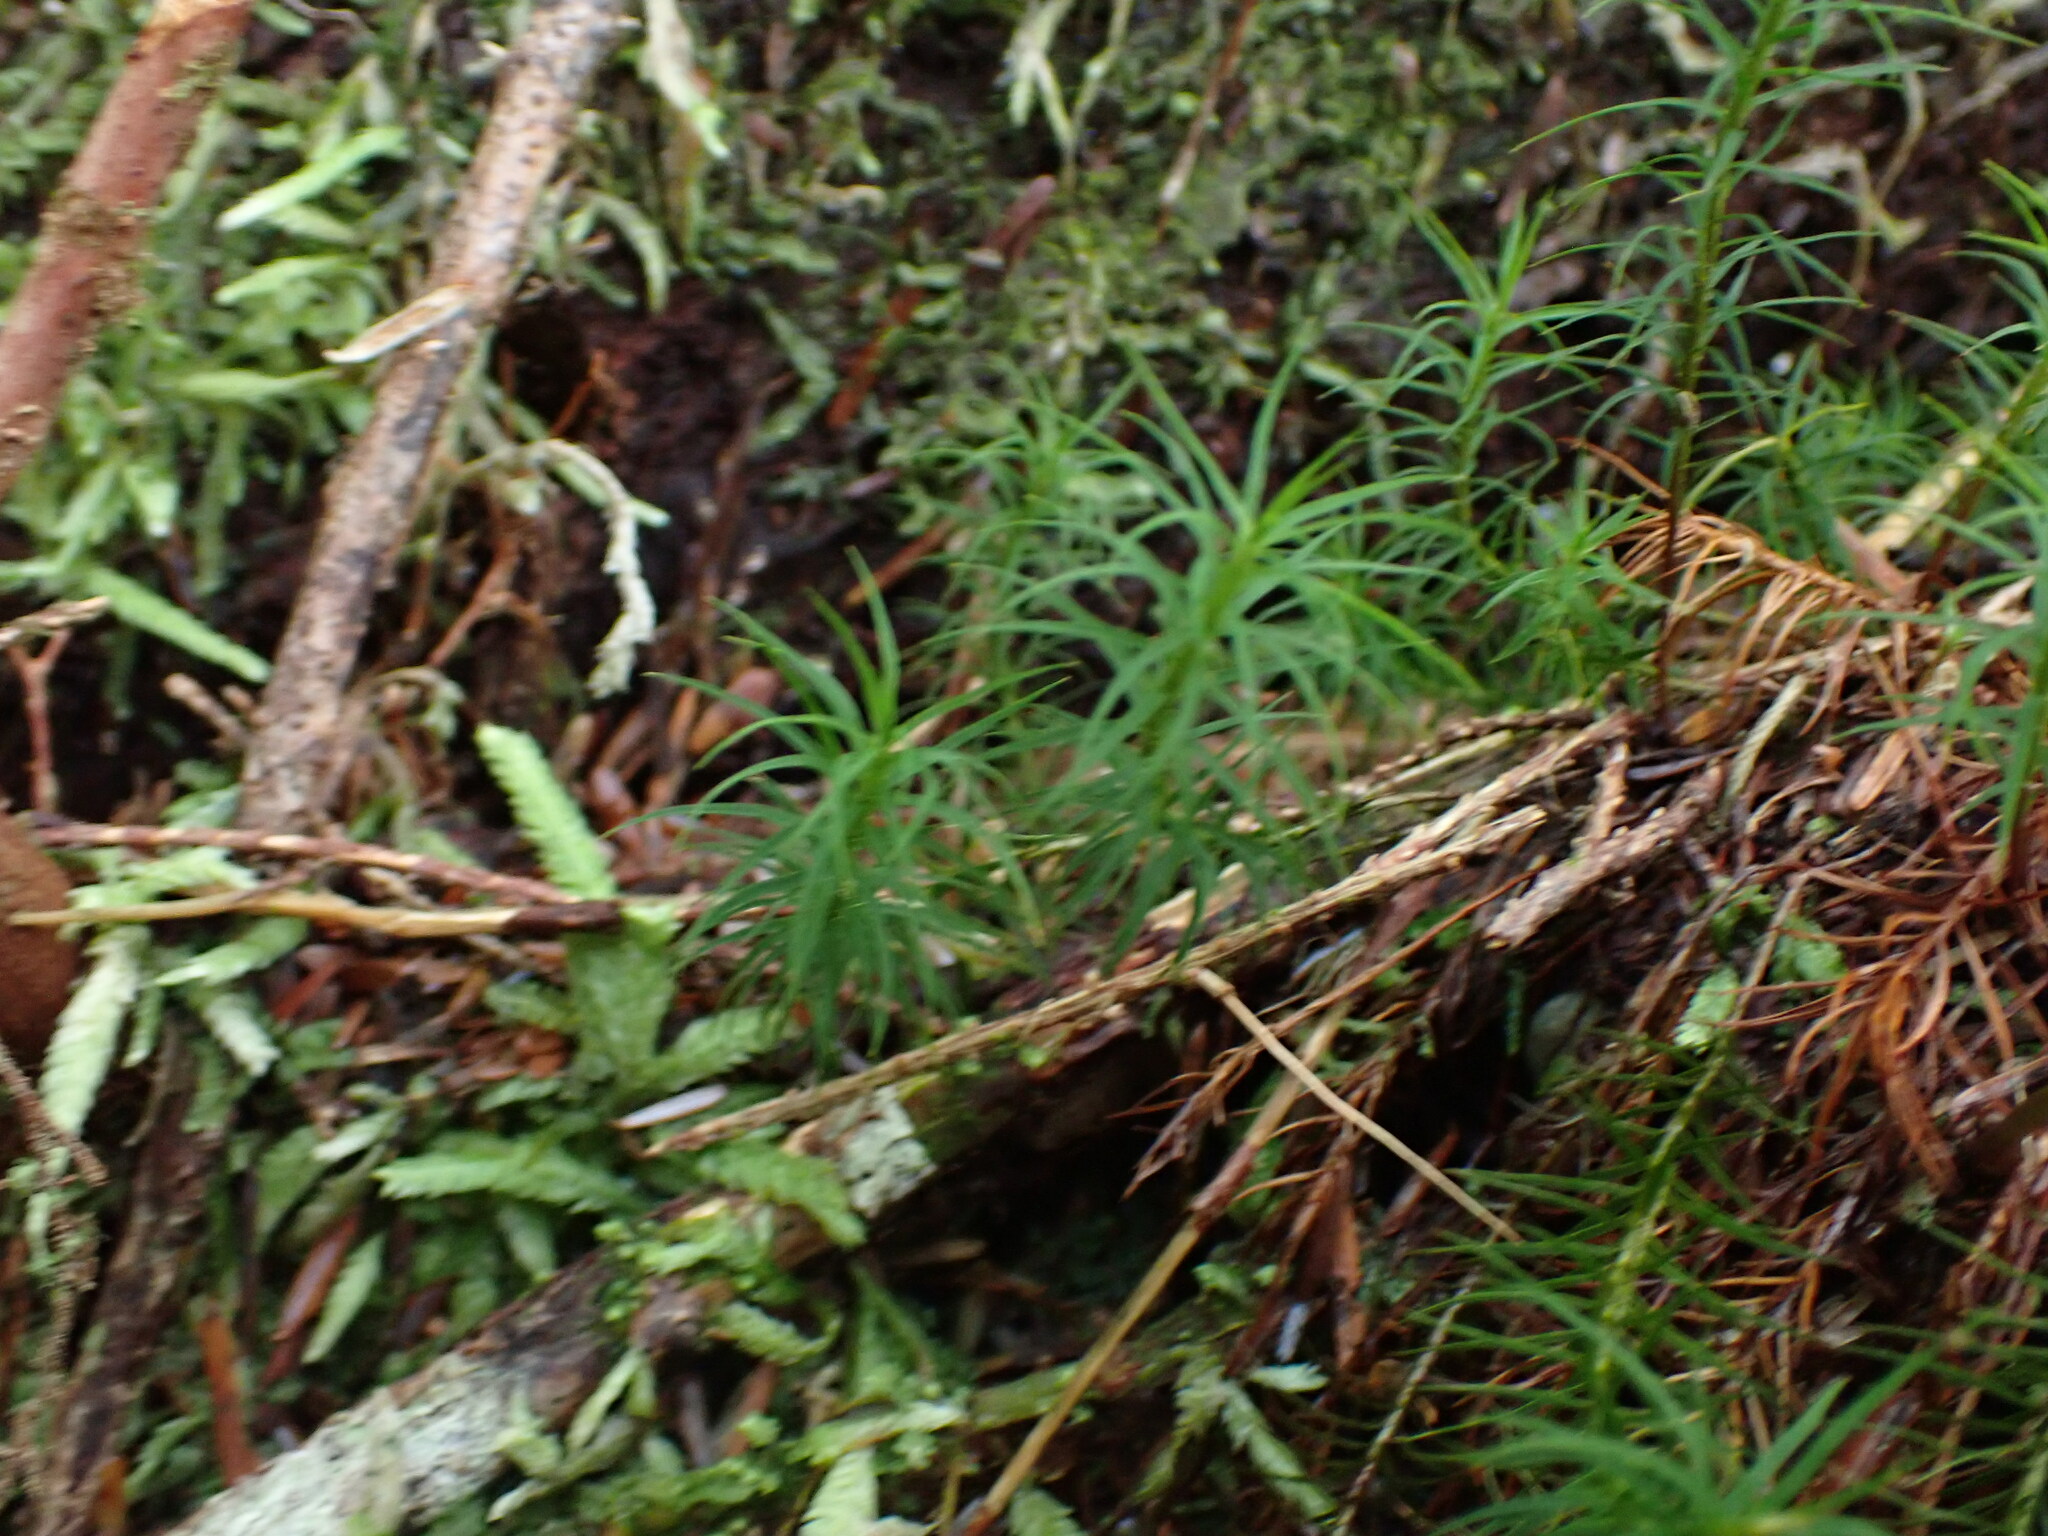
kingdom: Plantae
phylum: Bryophyta
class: Polytrichopsida
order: Polytrichales
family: Polytrichaceae
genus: Polytrichastrum
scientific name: Polytrichastrum alpinum
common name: Alpine haircap
